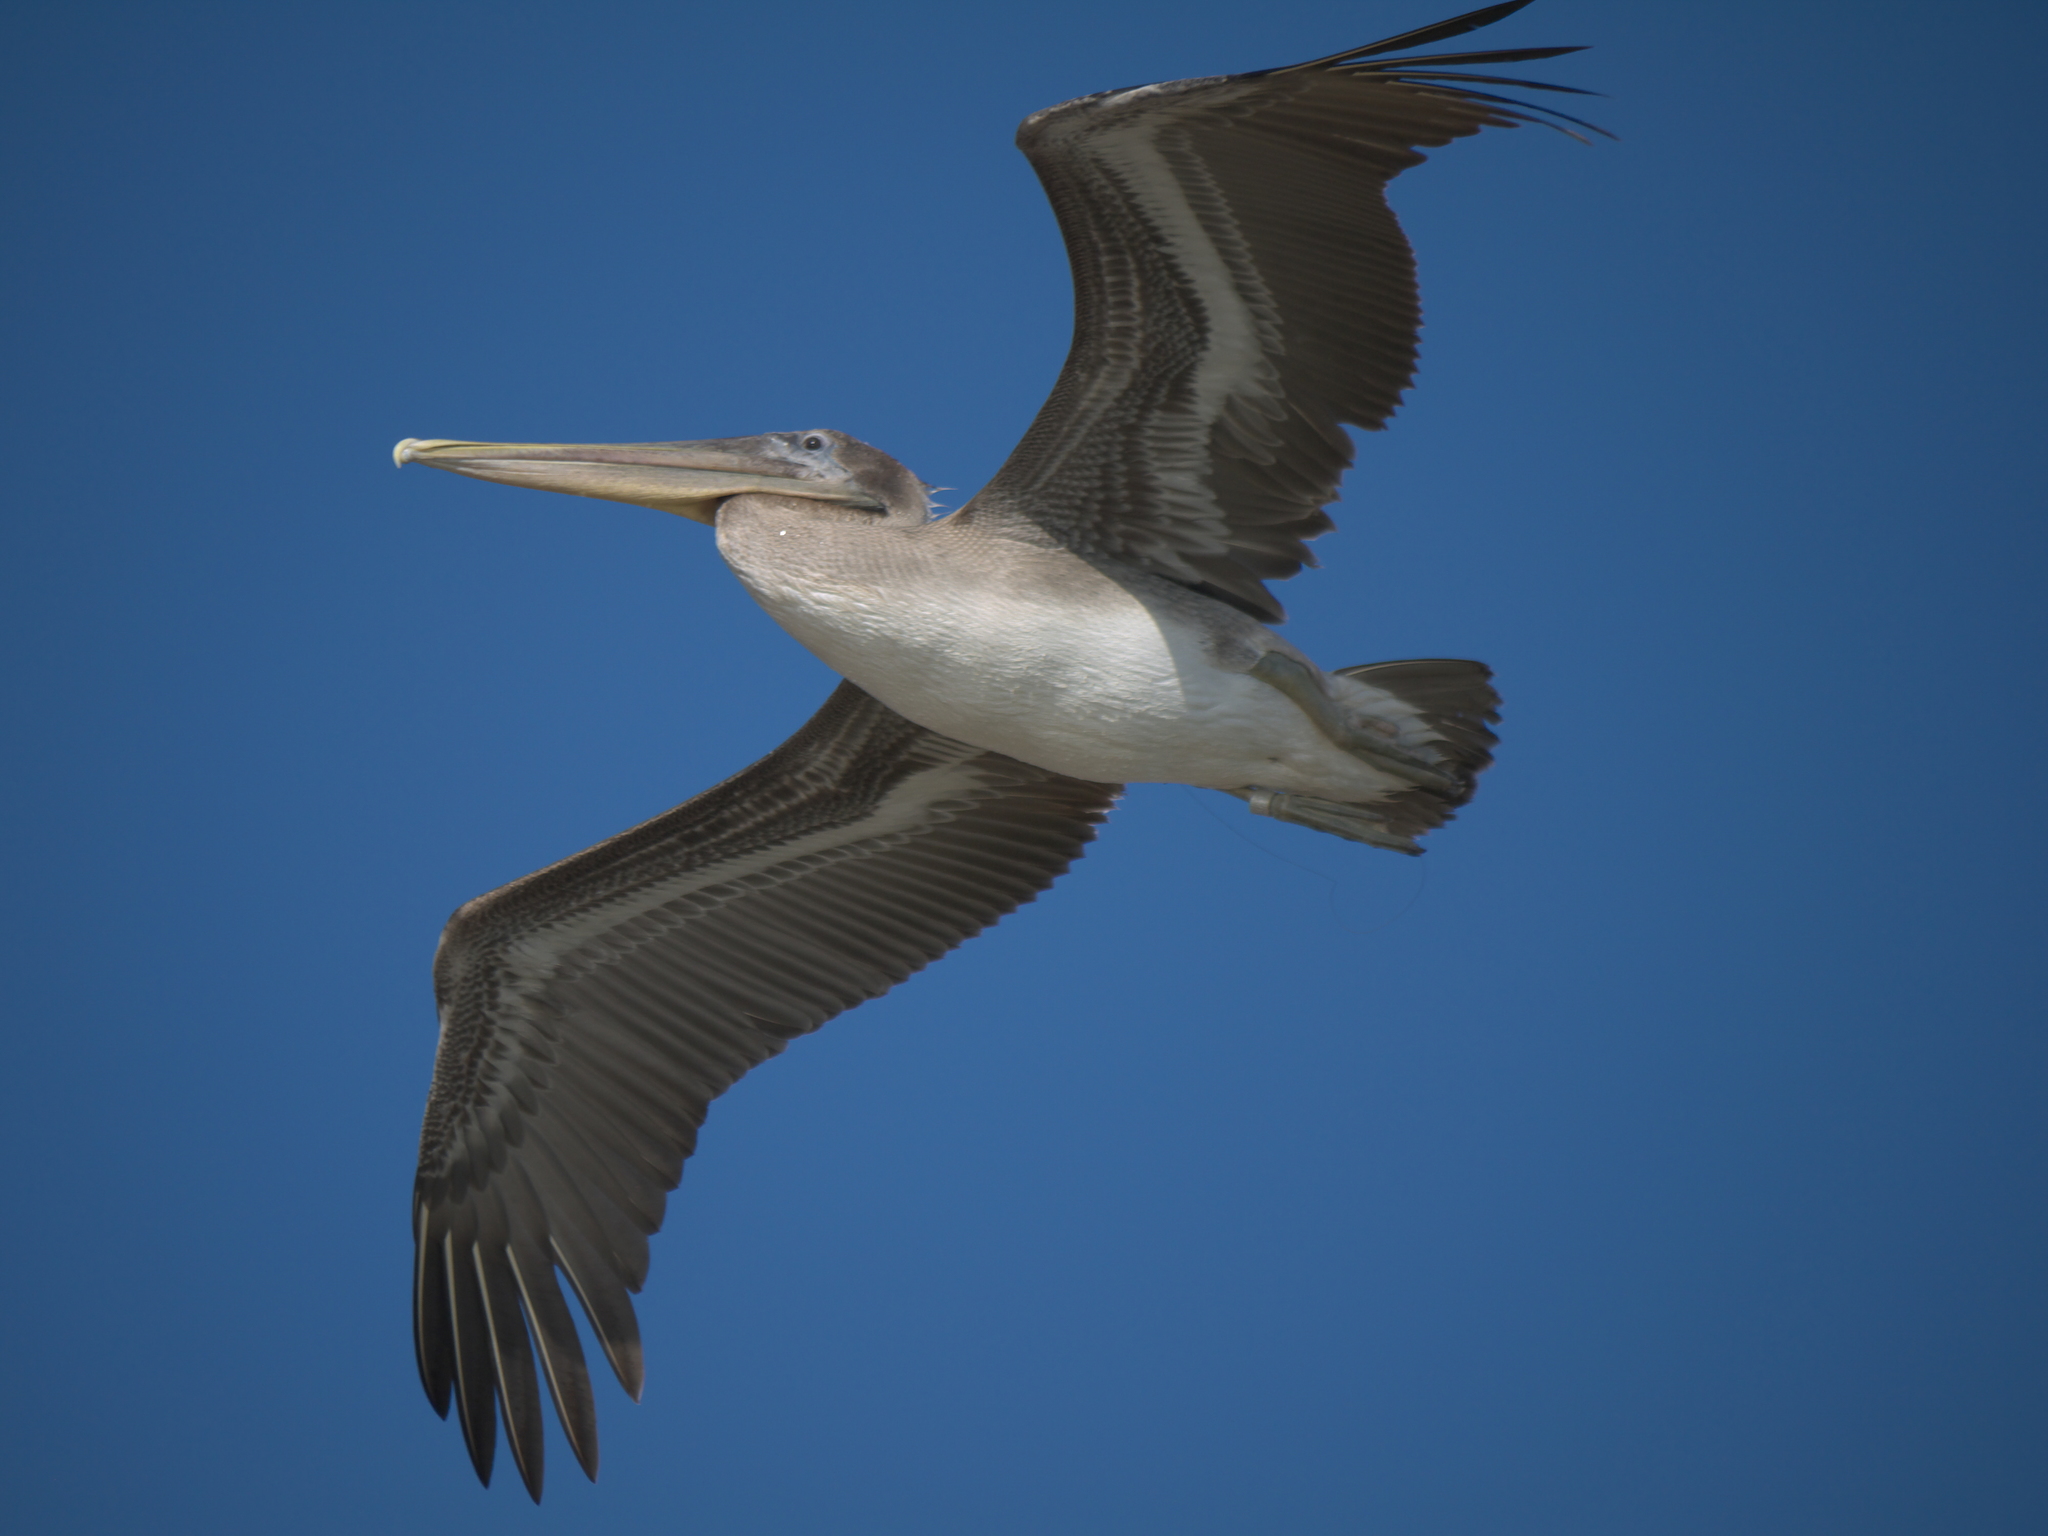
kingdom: Animalia
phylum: Chordata
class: Aves
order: Pelecaniformes
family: Pelecanidae
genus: Pelecanus
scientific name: Pelecanus occidentalis
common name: Brown pelican
